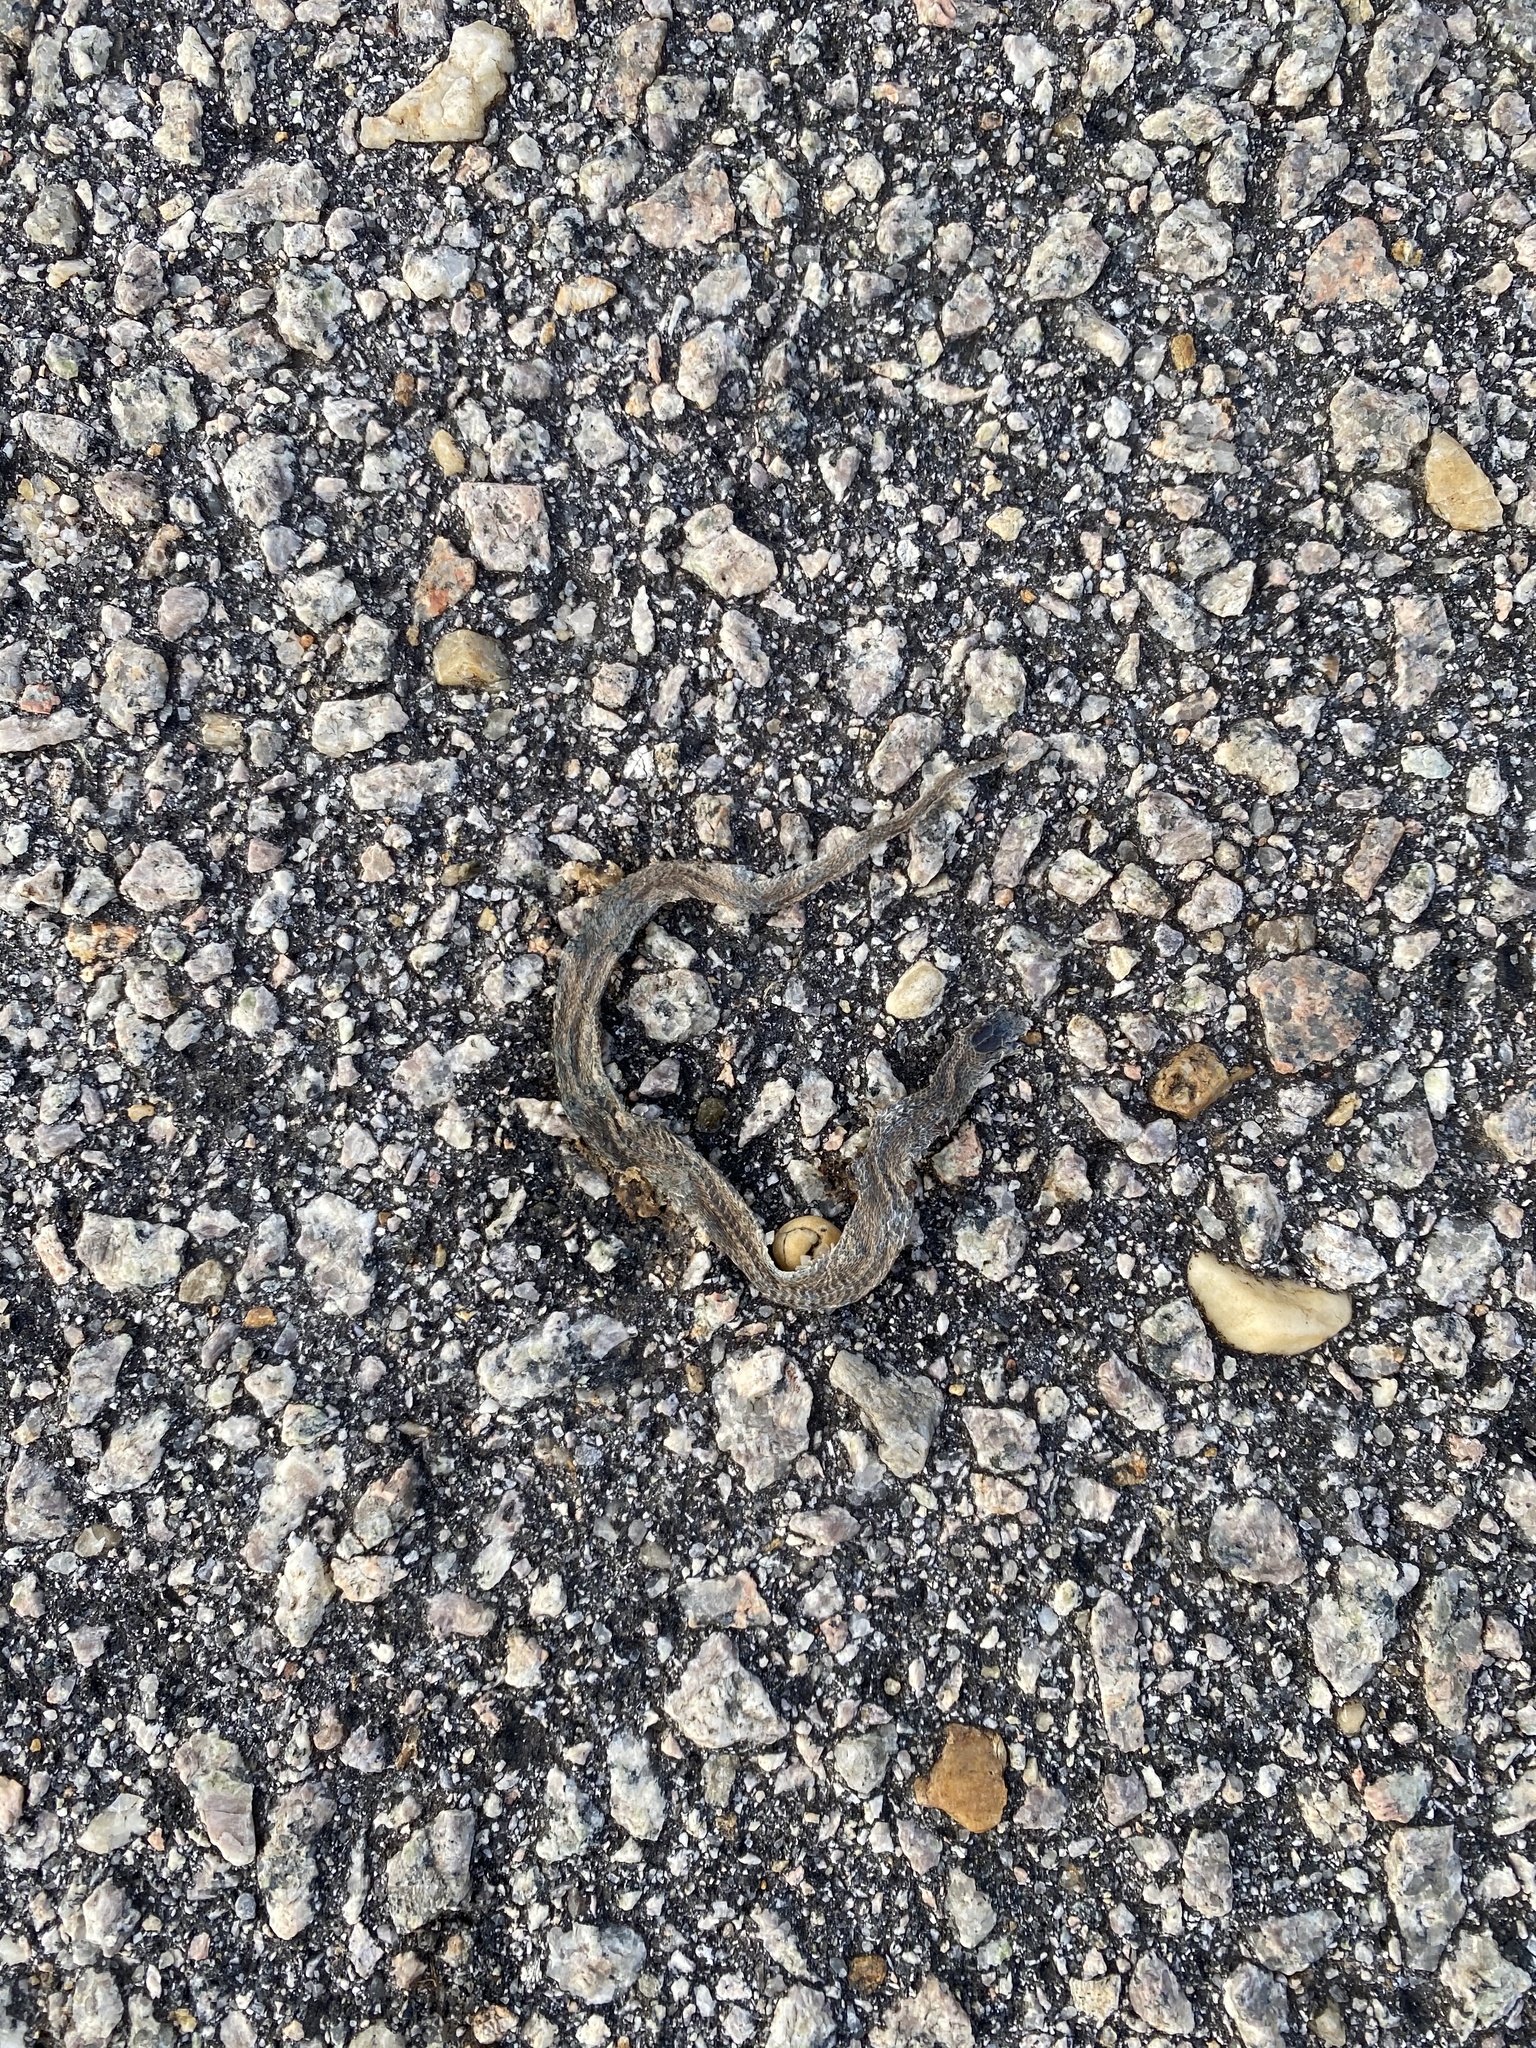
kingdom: Animalia
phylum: Chordata
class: Squamata
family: Colubridae
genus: Storeria
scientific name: Storeria dekayi
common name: (dekay’s) brown snake
